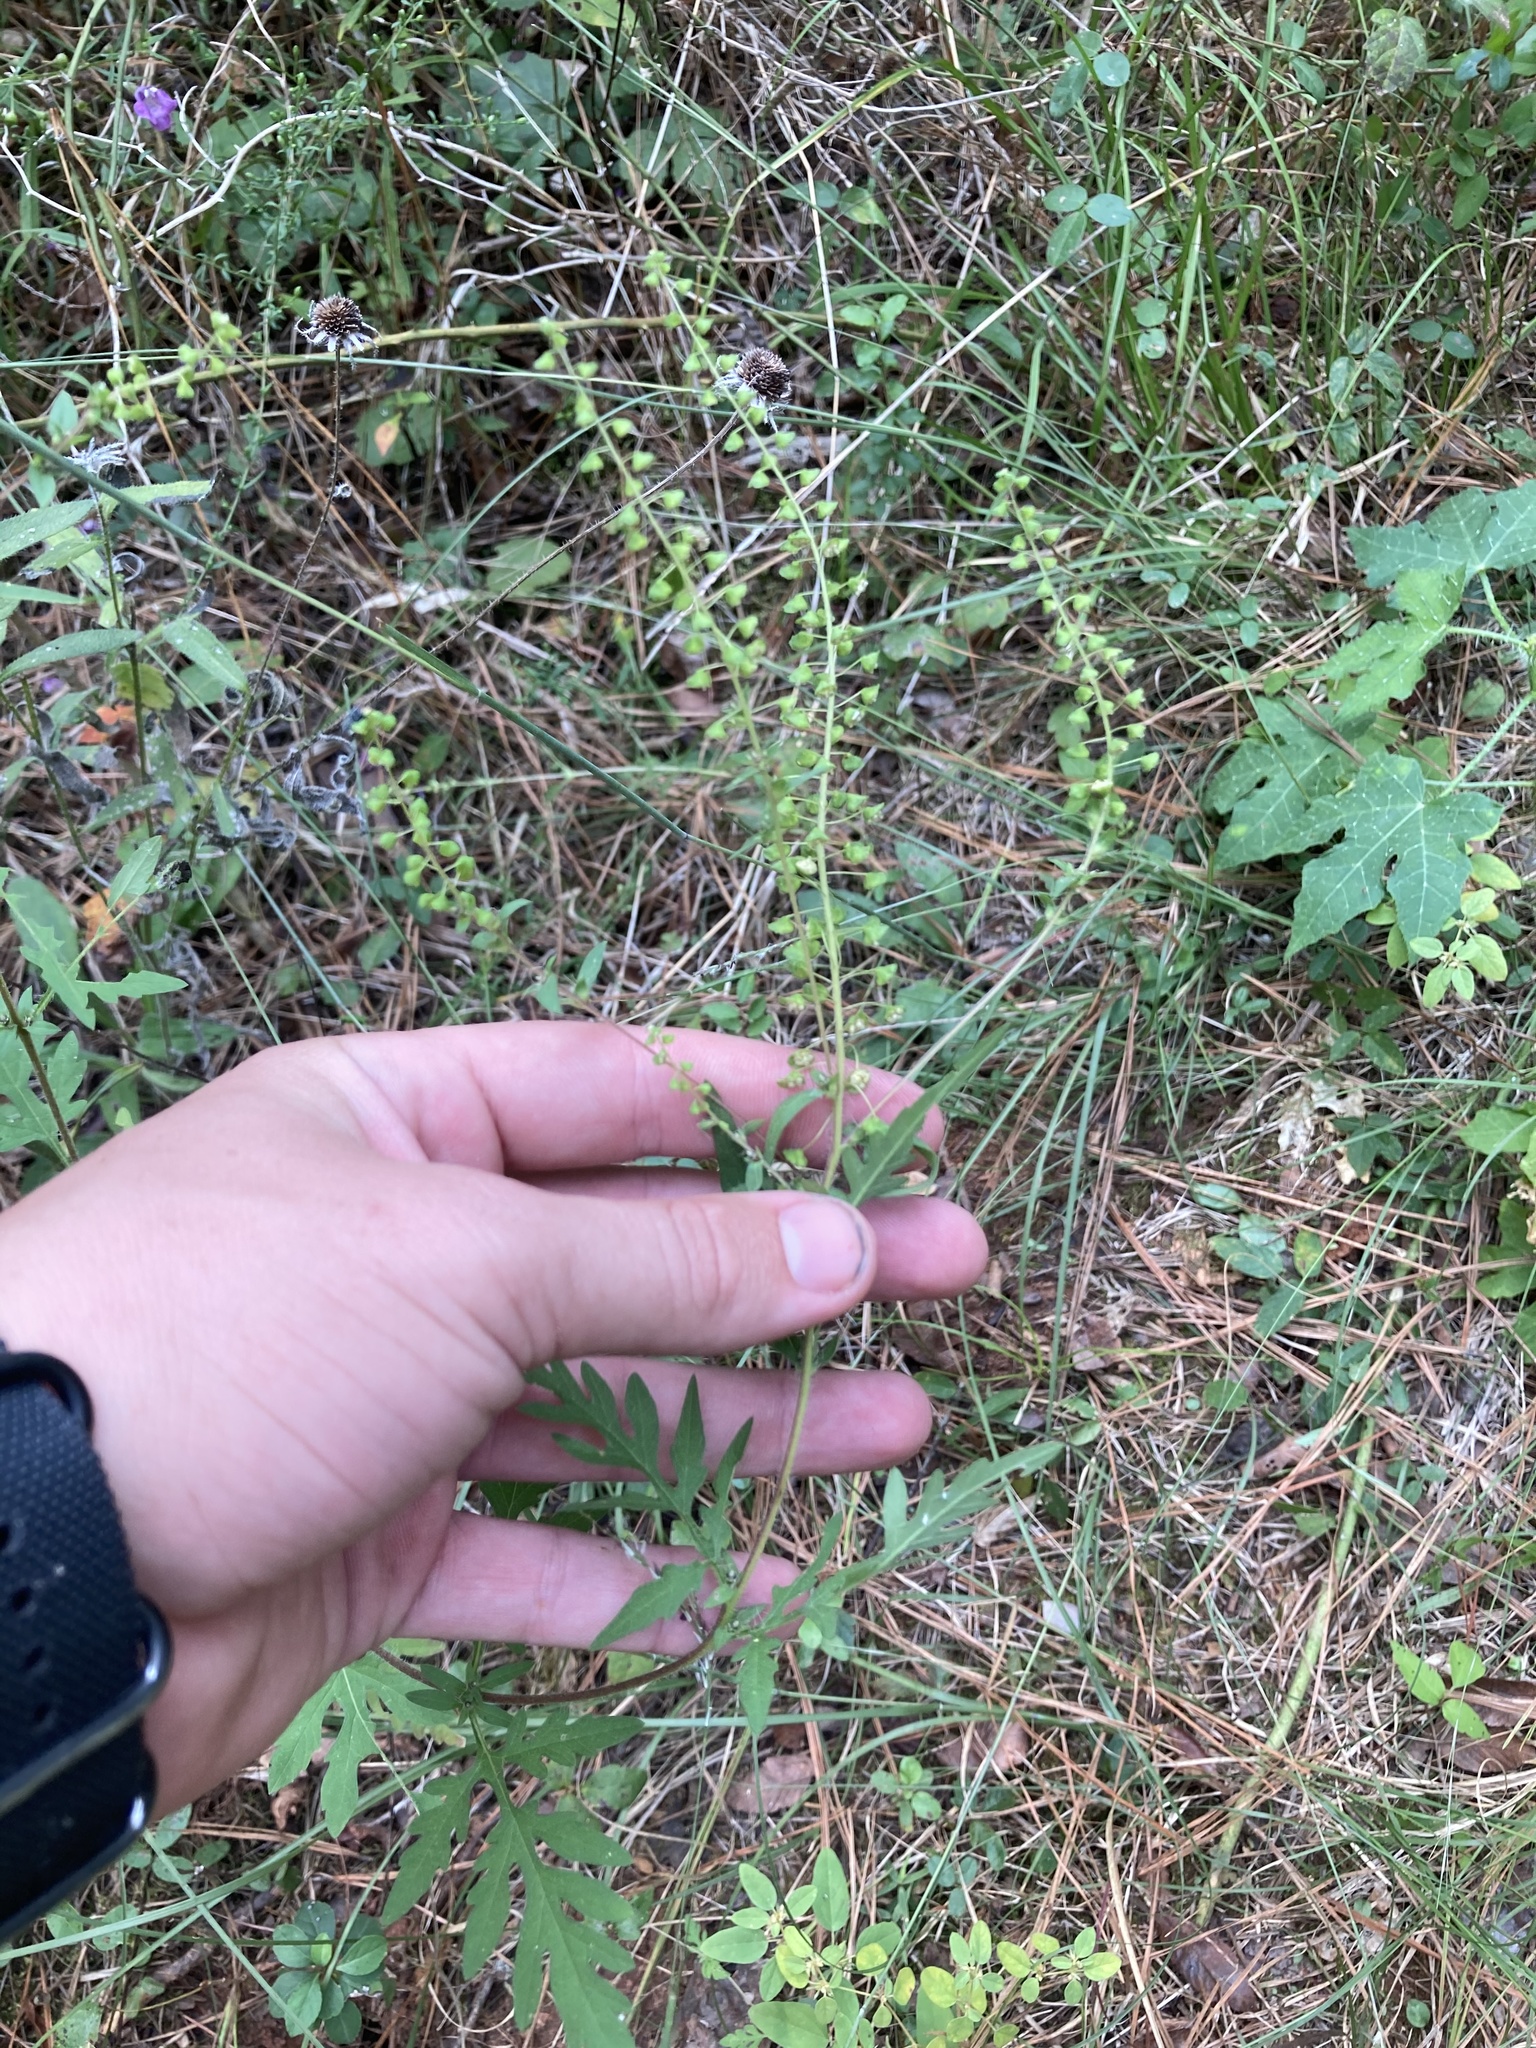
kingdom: Plantae
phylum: Tracheophyta
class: Magnoliopsida
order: Asterales
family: Asteraceae
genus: Ambrosia
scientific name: Ambrosia artemisiifolia
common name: Annual ragweed
